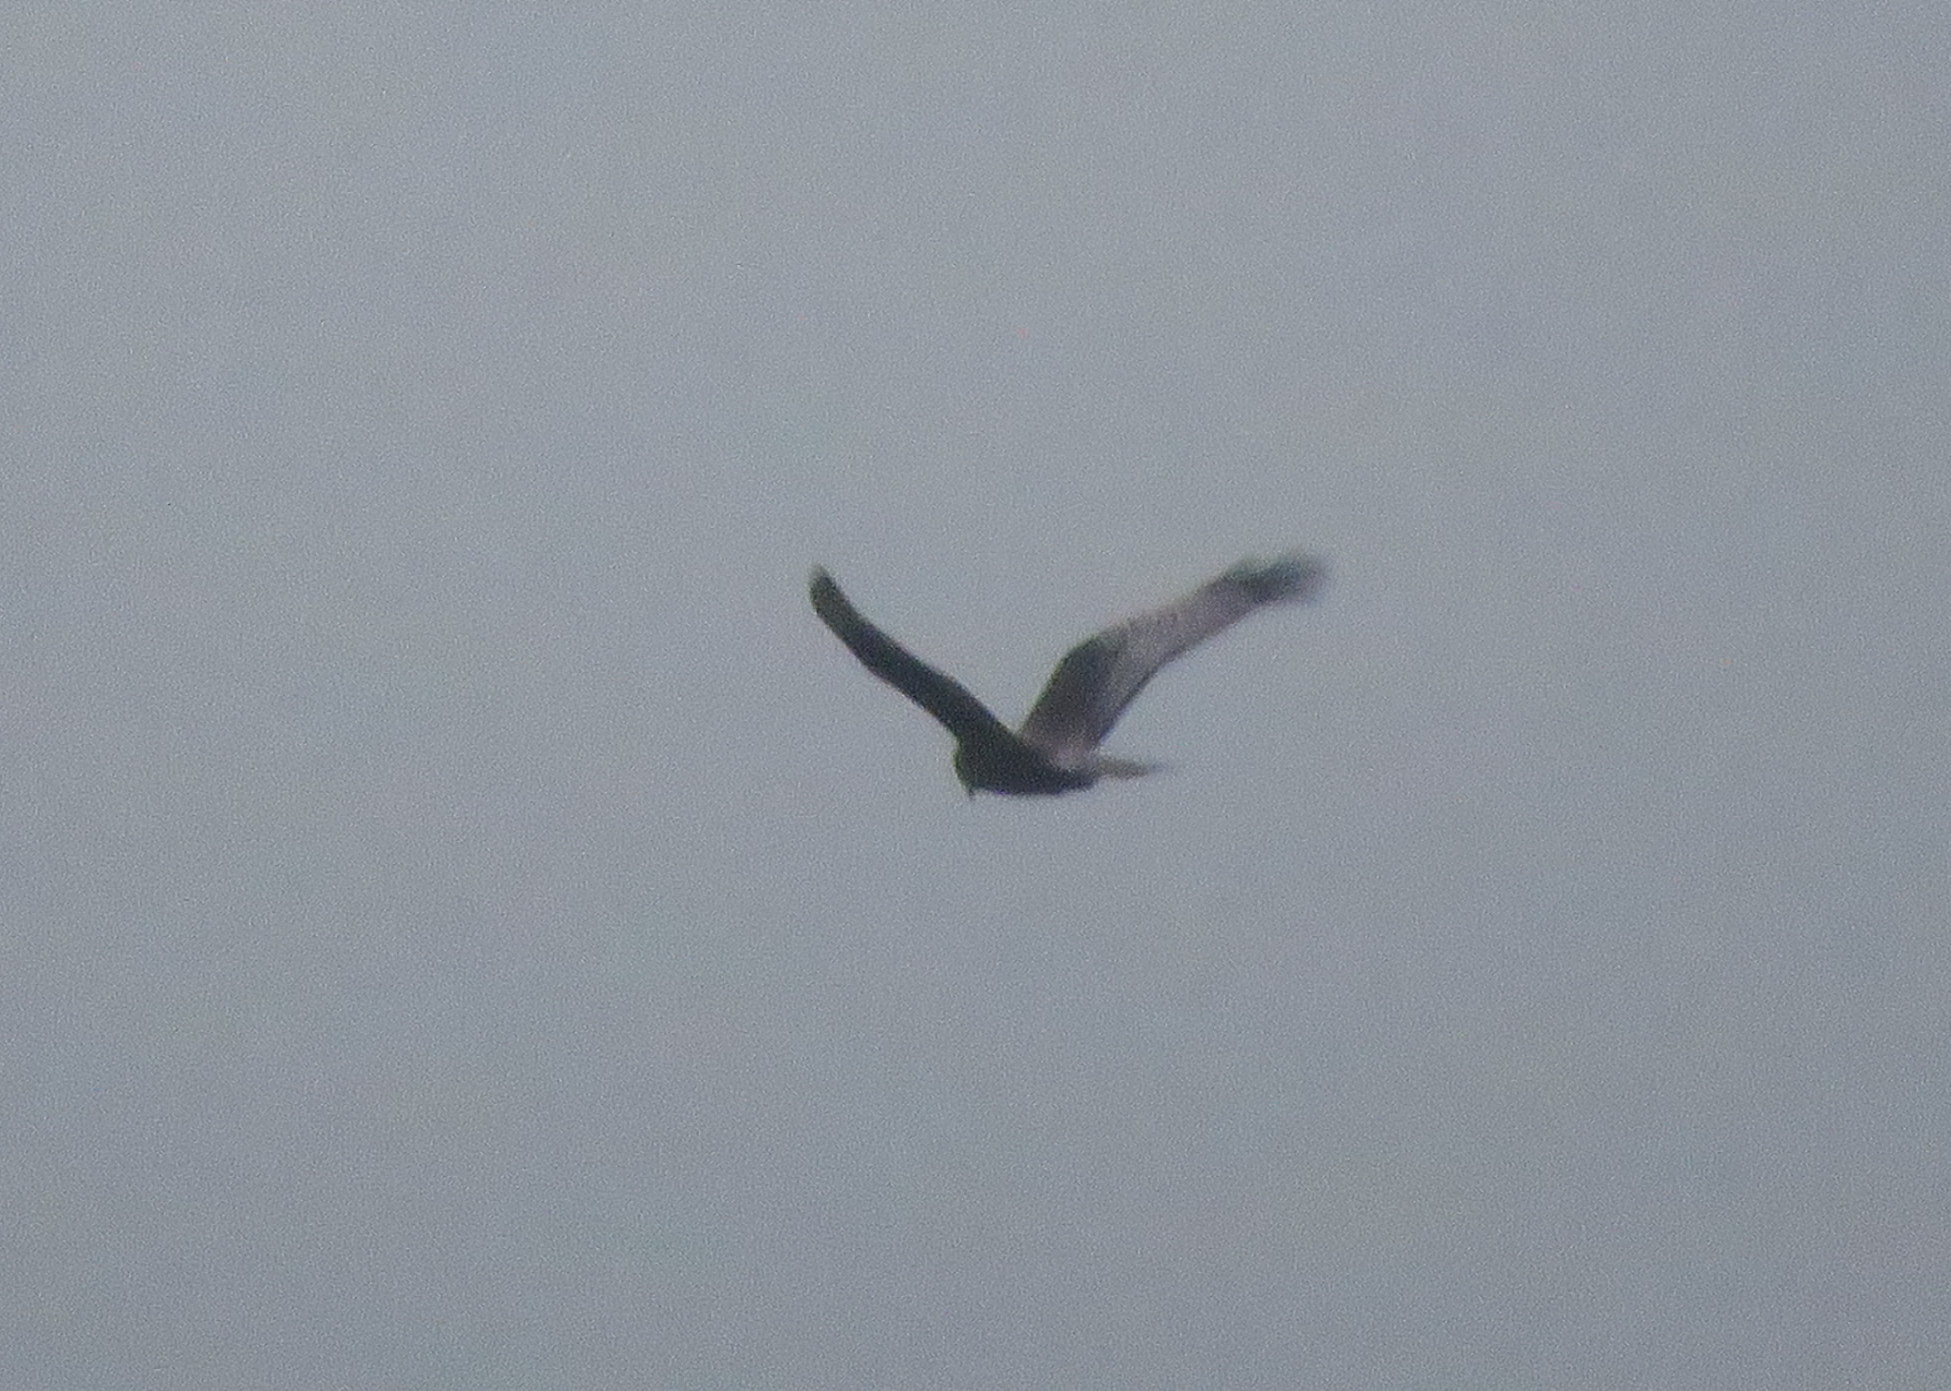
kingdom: Animalia
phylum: Chordata
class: Aves
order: Accipitriformes
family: Accipitridae
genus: Circus
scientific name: Circus buffoni
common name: Long-winged harrier
